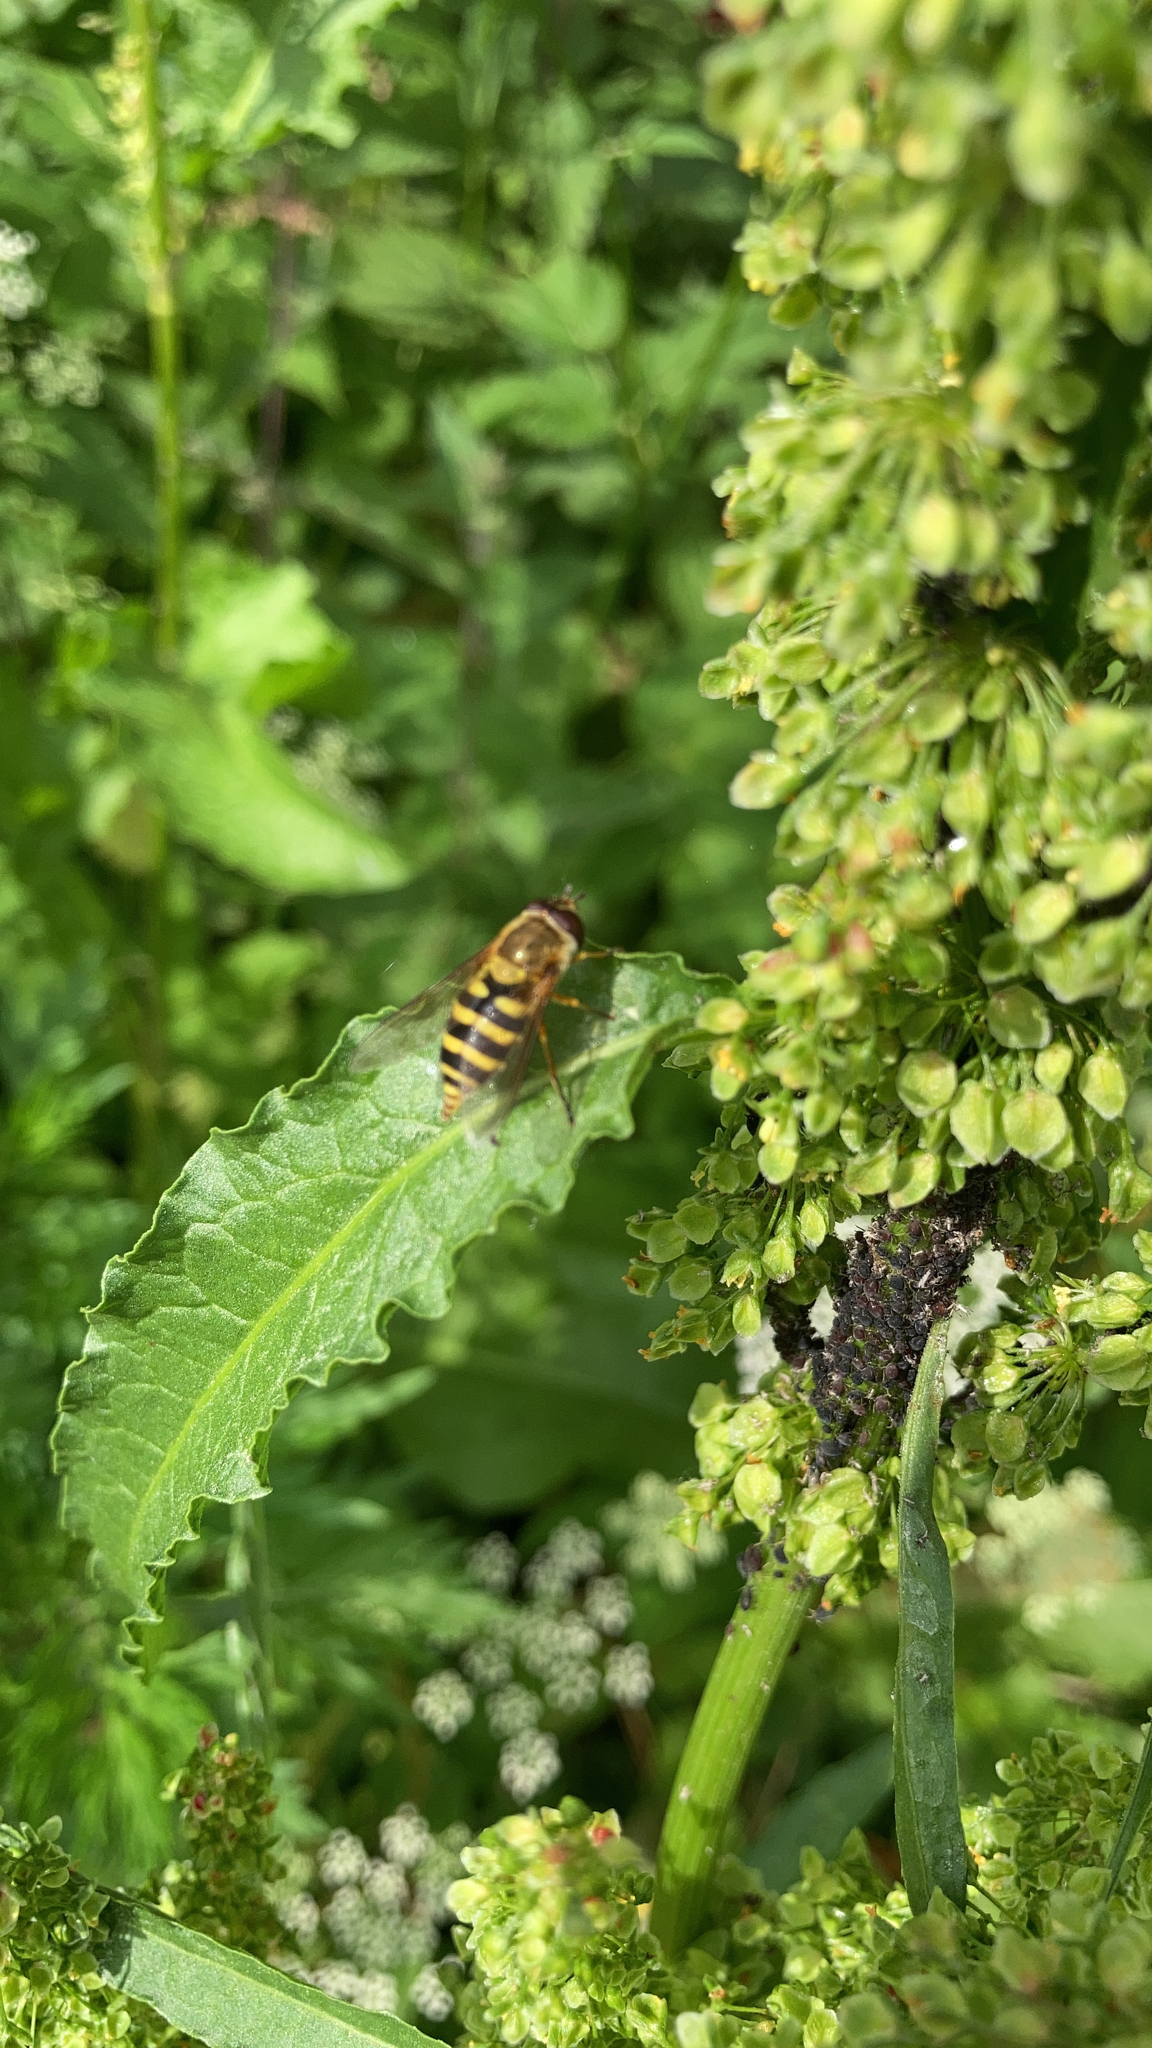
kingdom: Animalia
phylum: Arthropoda
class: Insecta
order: Diptera
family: Syrphidae
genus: Syrphus
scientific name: Syrphus
